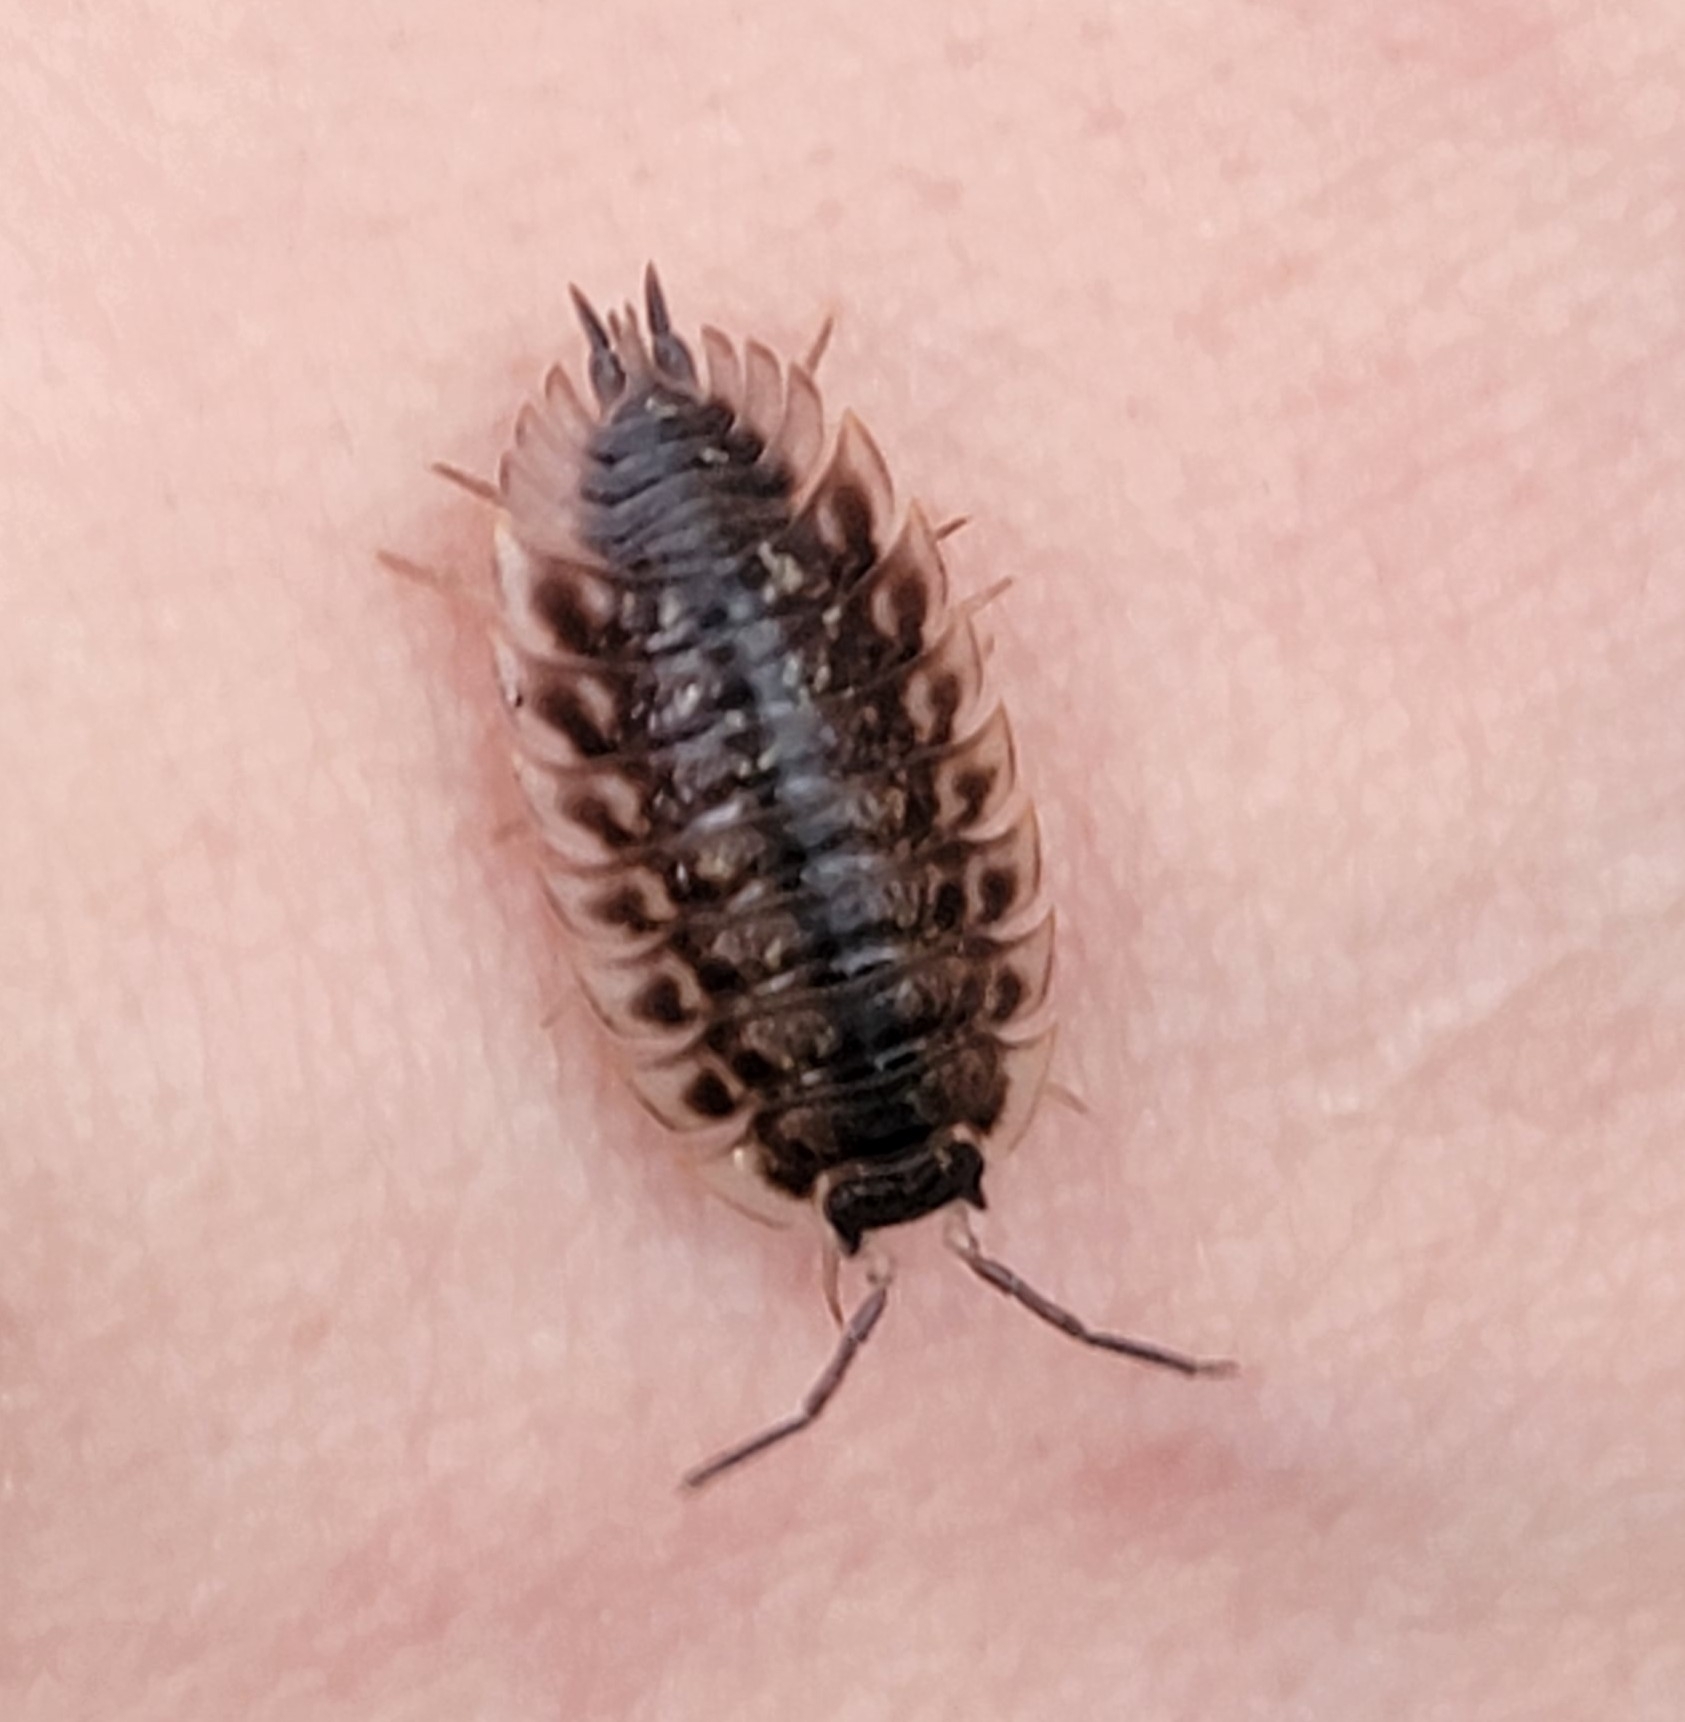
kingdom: Animalia
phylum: Arthropoda
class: Malacostraca
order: Isopoda
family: Oniscidae
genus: Oniscus
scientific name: Oniscus asellus
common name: Common shiny woodlouse
